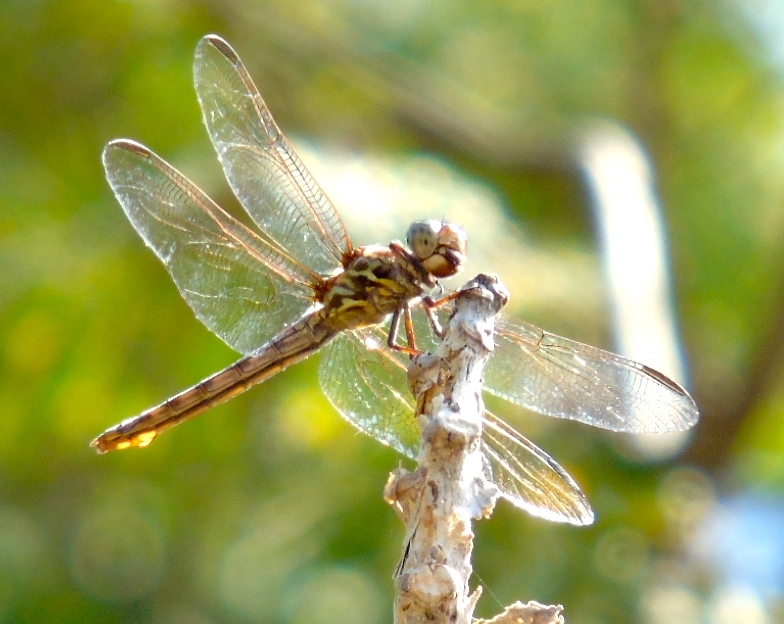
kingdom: Animalia
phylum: Arthropoda
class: Insecta
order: Odonata
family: Libellulidae
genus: Orthemis
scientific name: Orthemis
